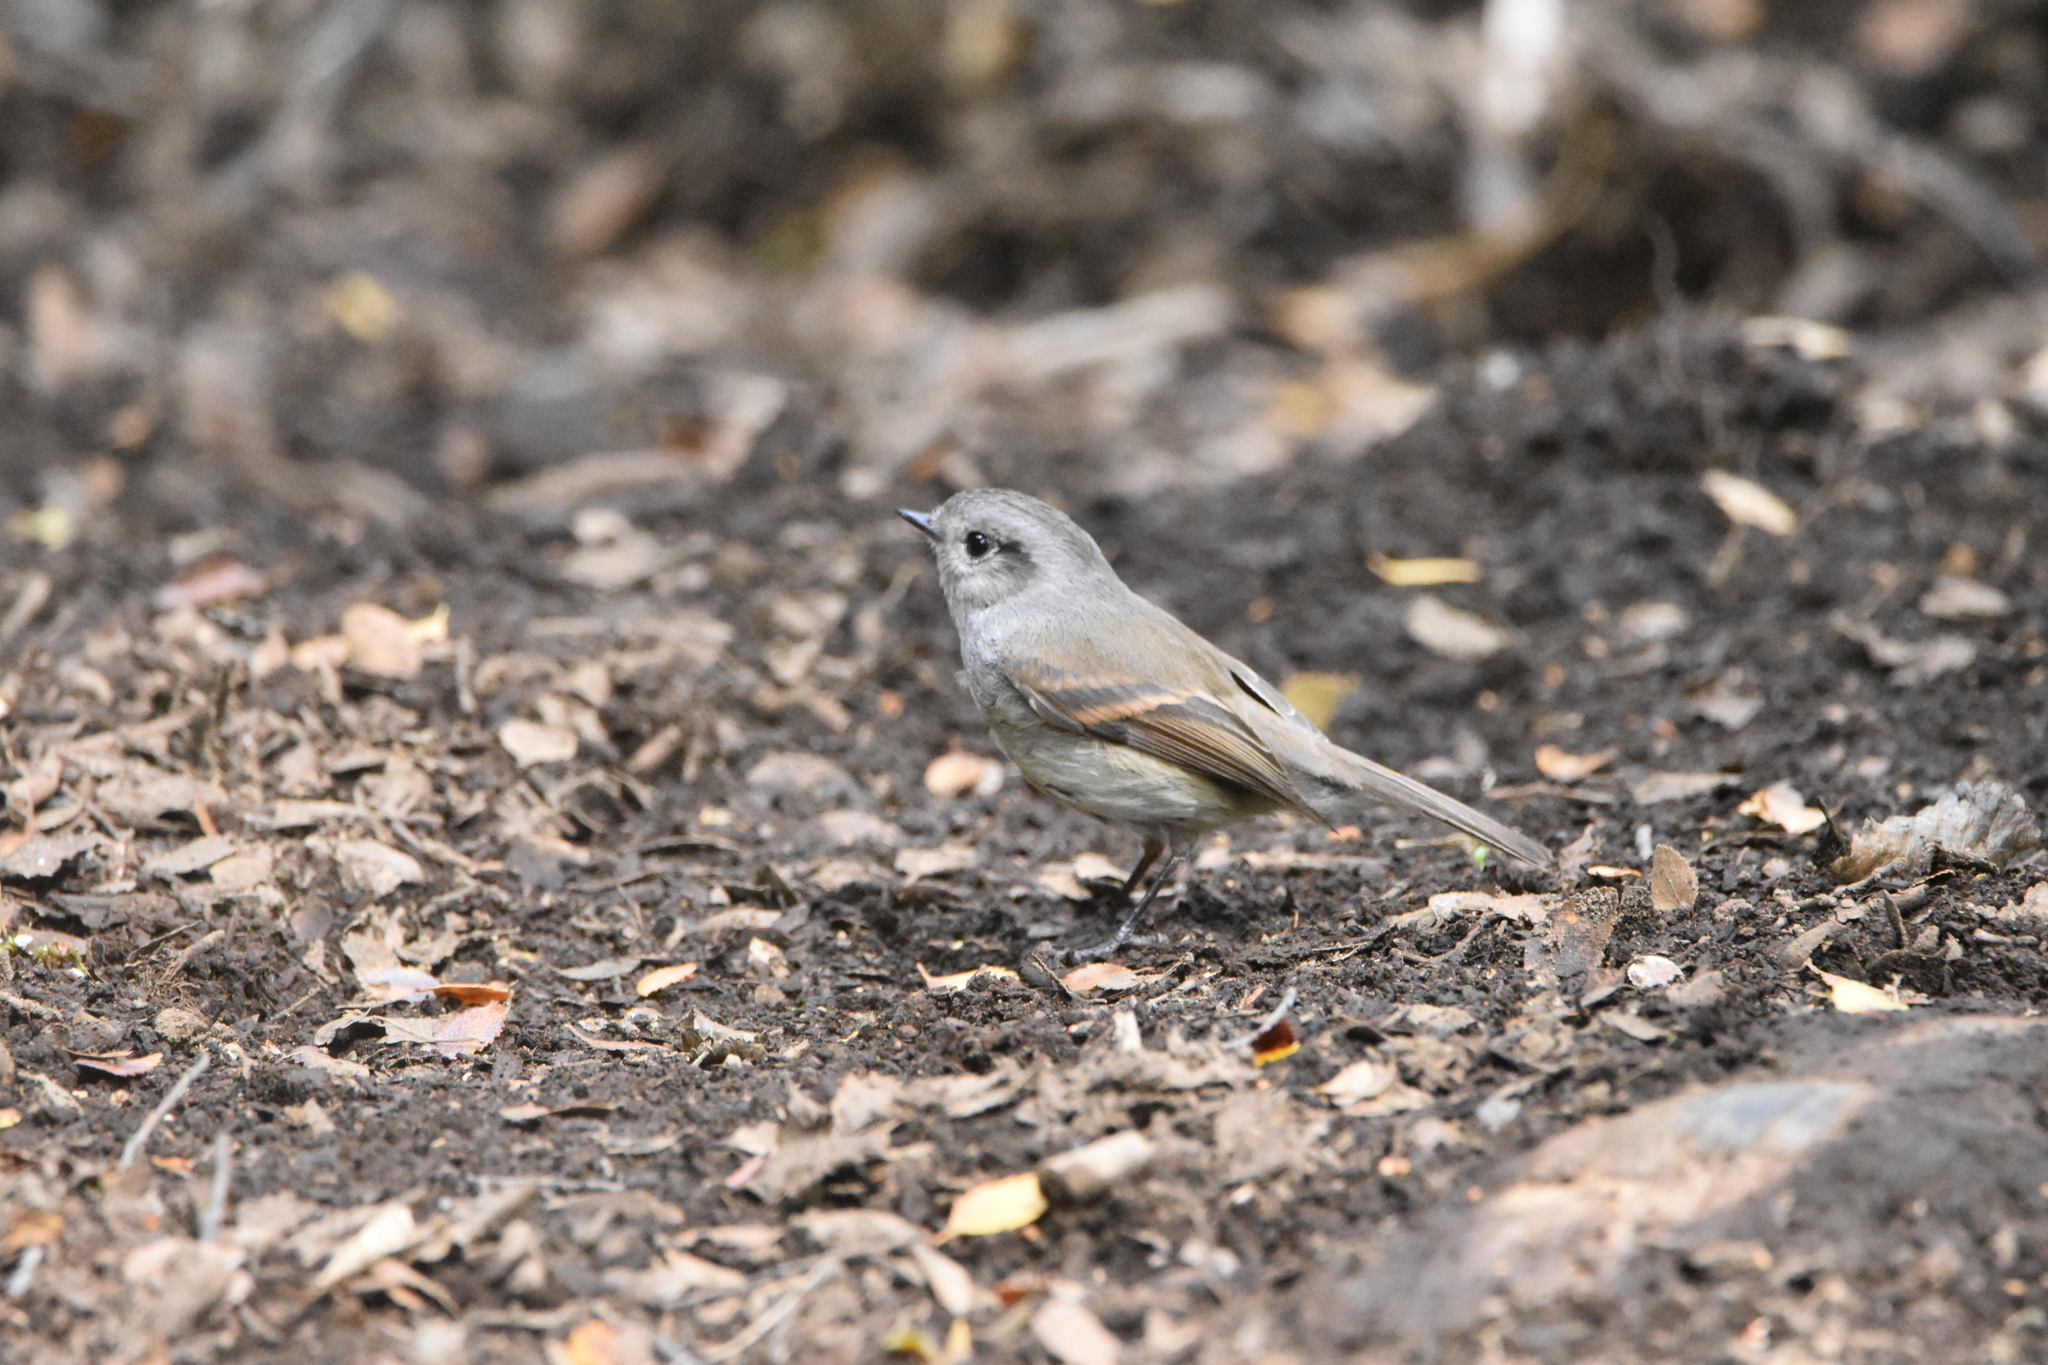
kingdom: Animalia
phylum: Chordata
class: Aves
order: Passeriformes
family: Tyrannidae
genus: Colorhamphus
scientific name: Colorhamphus parvirostris
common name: Patagonian tyrant
